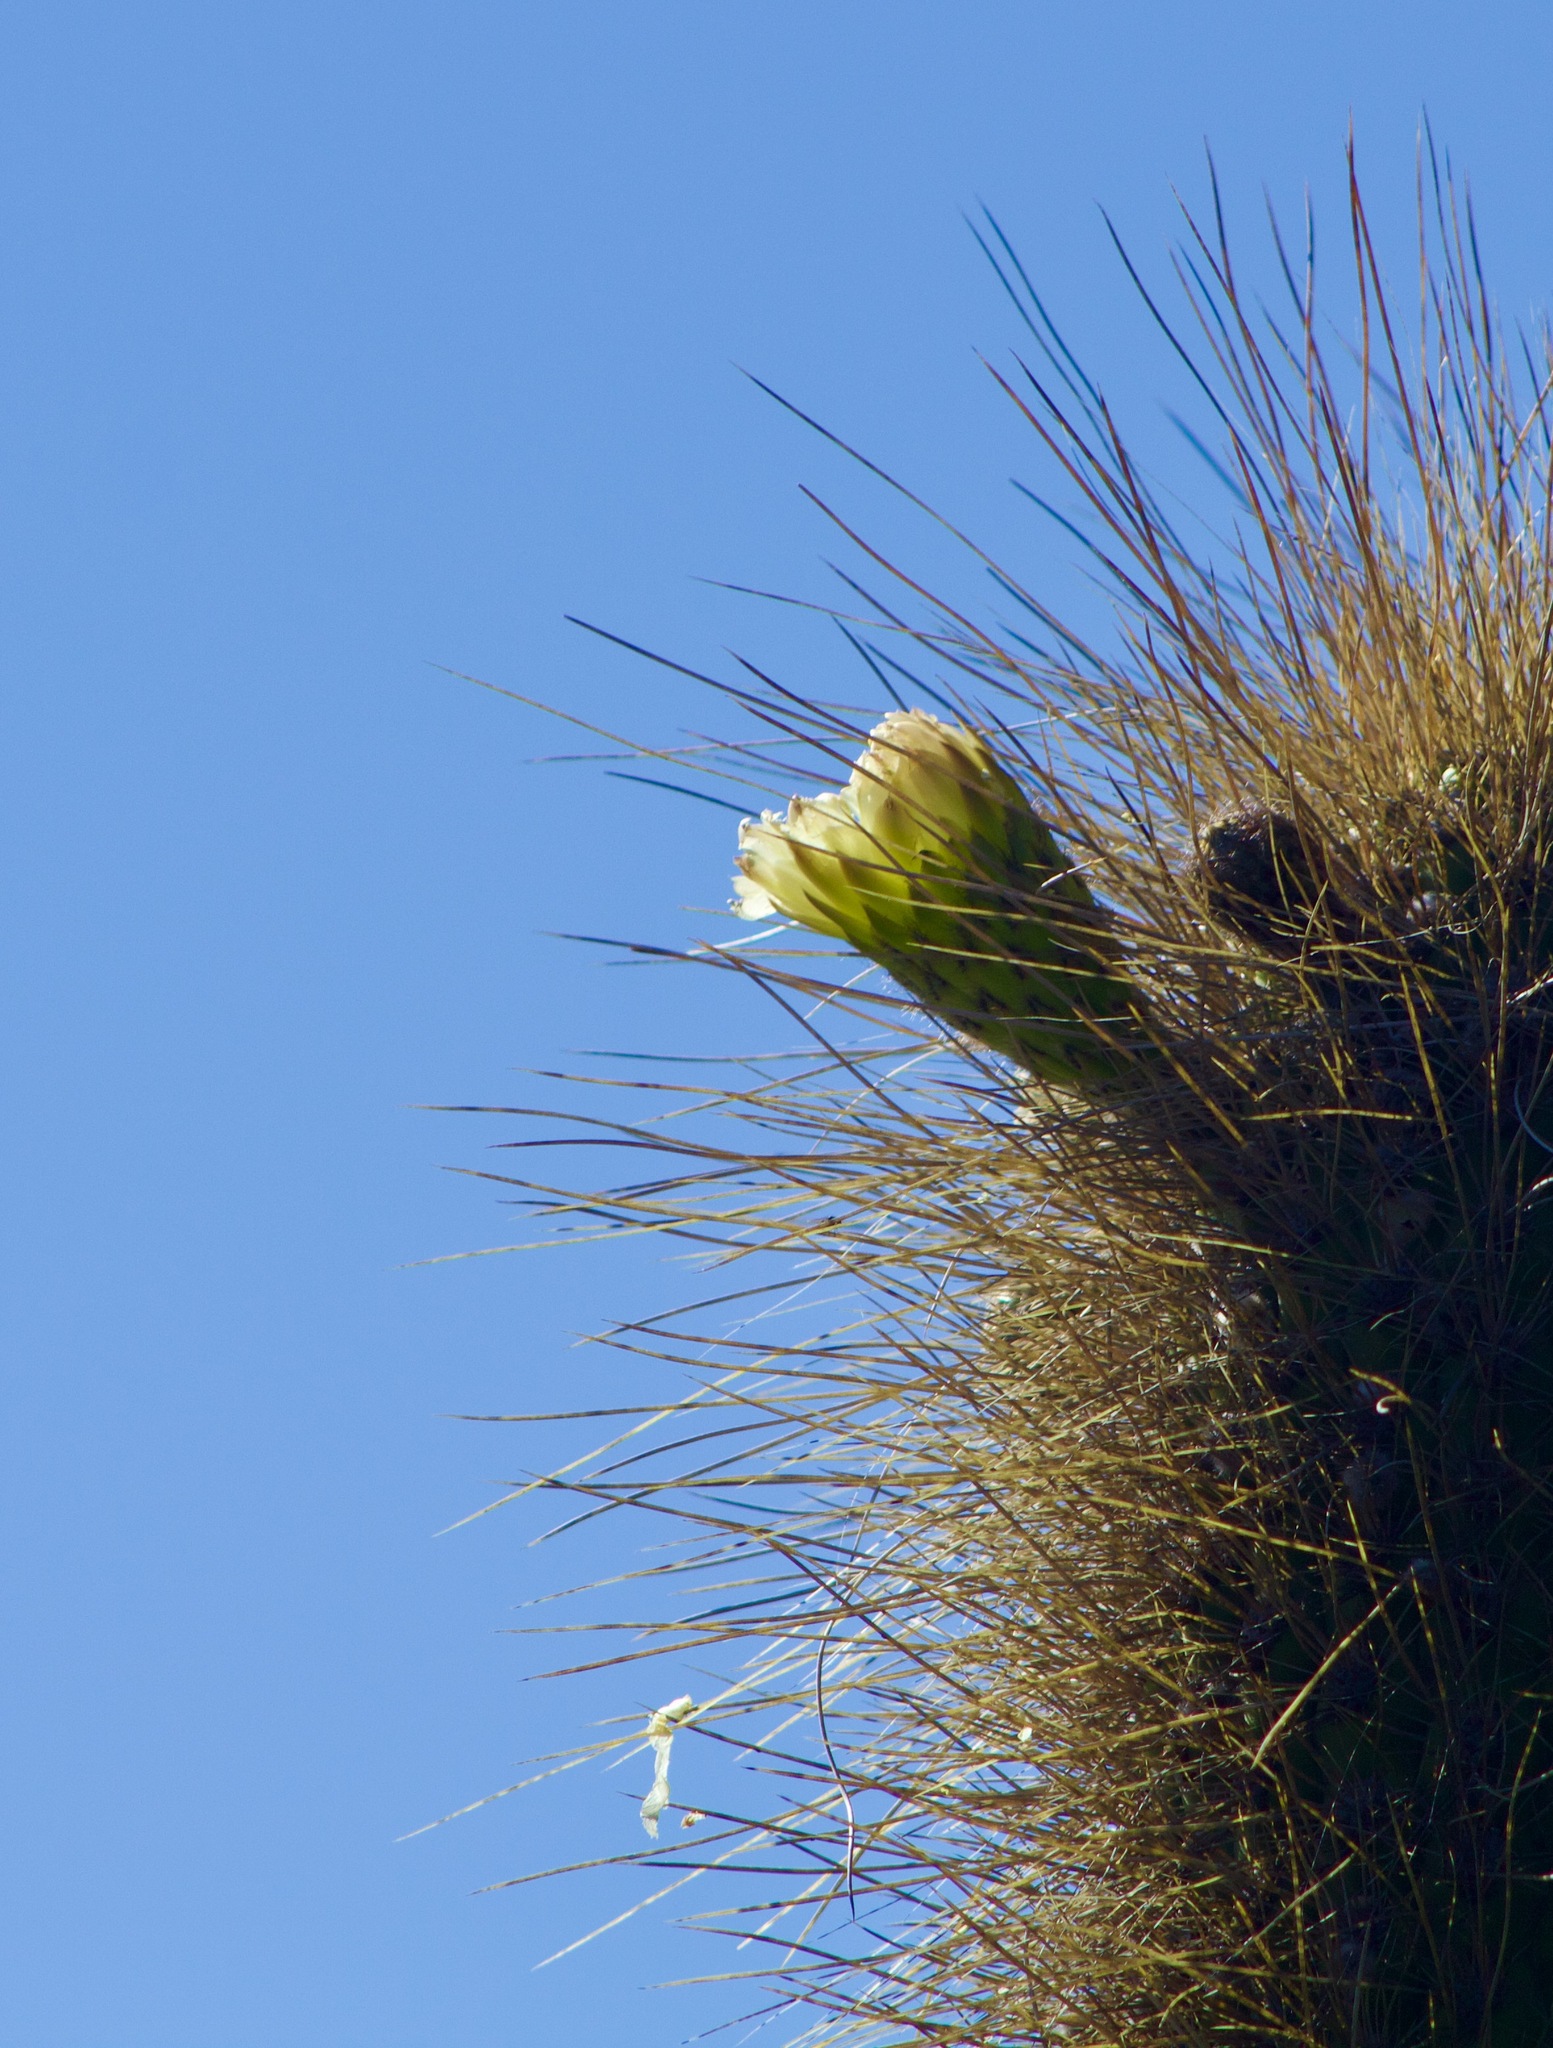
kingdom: Plantae
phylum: Tracheophyta
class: Magnoliopsida
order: Caryophyllales
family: Cactaceae
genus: Leucostele
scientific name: Leucostele skottsbergii
